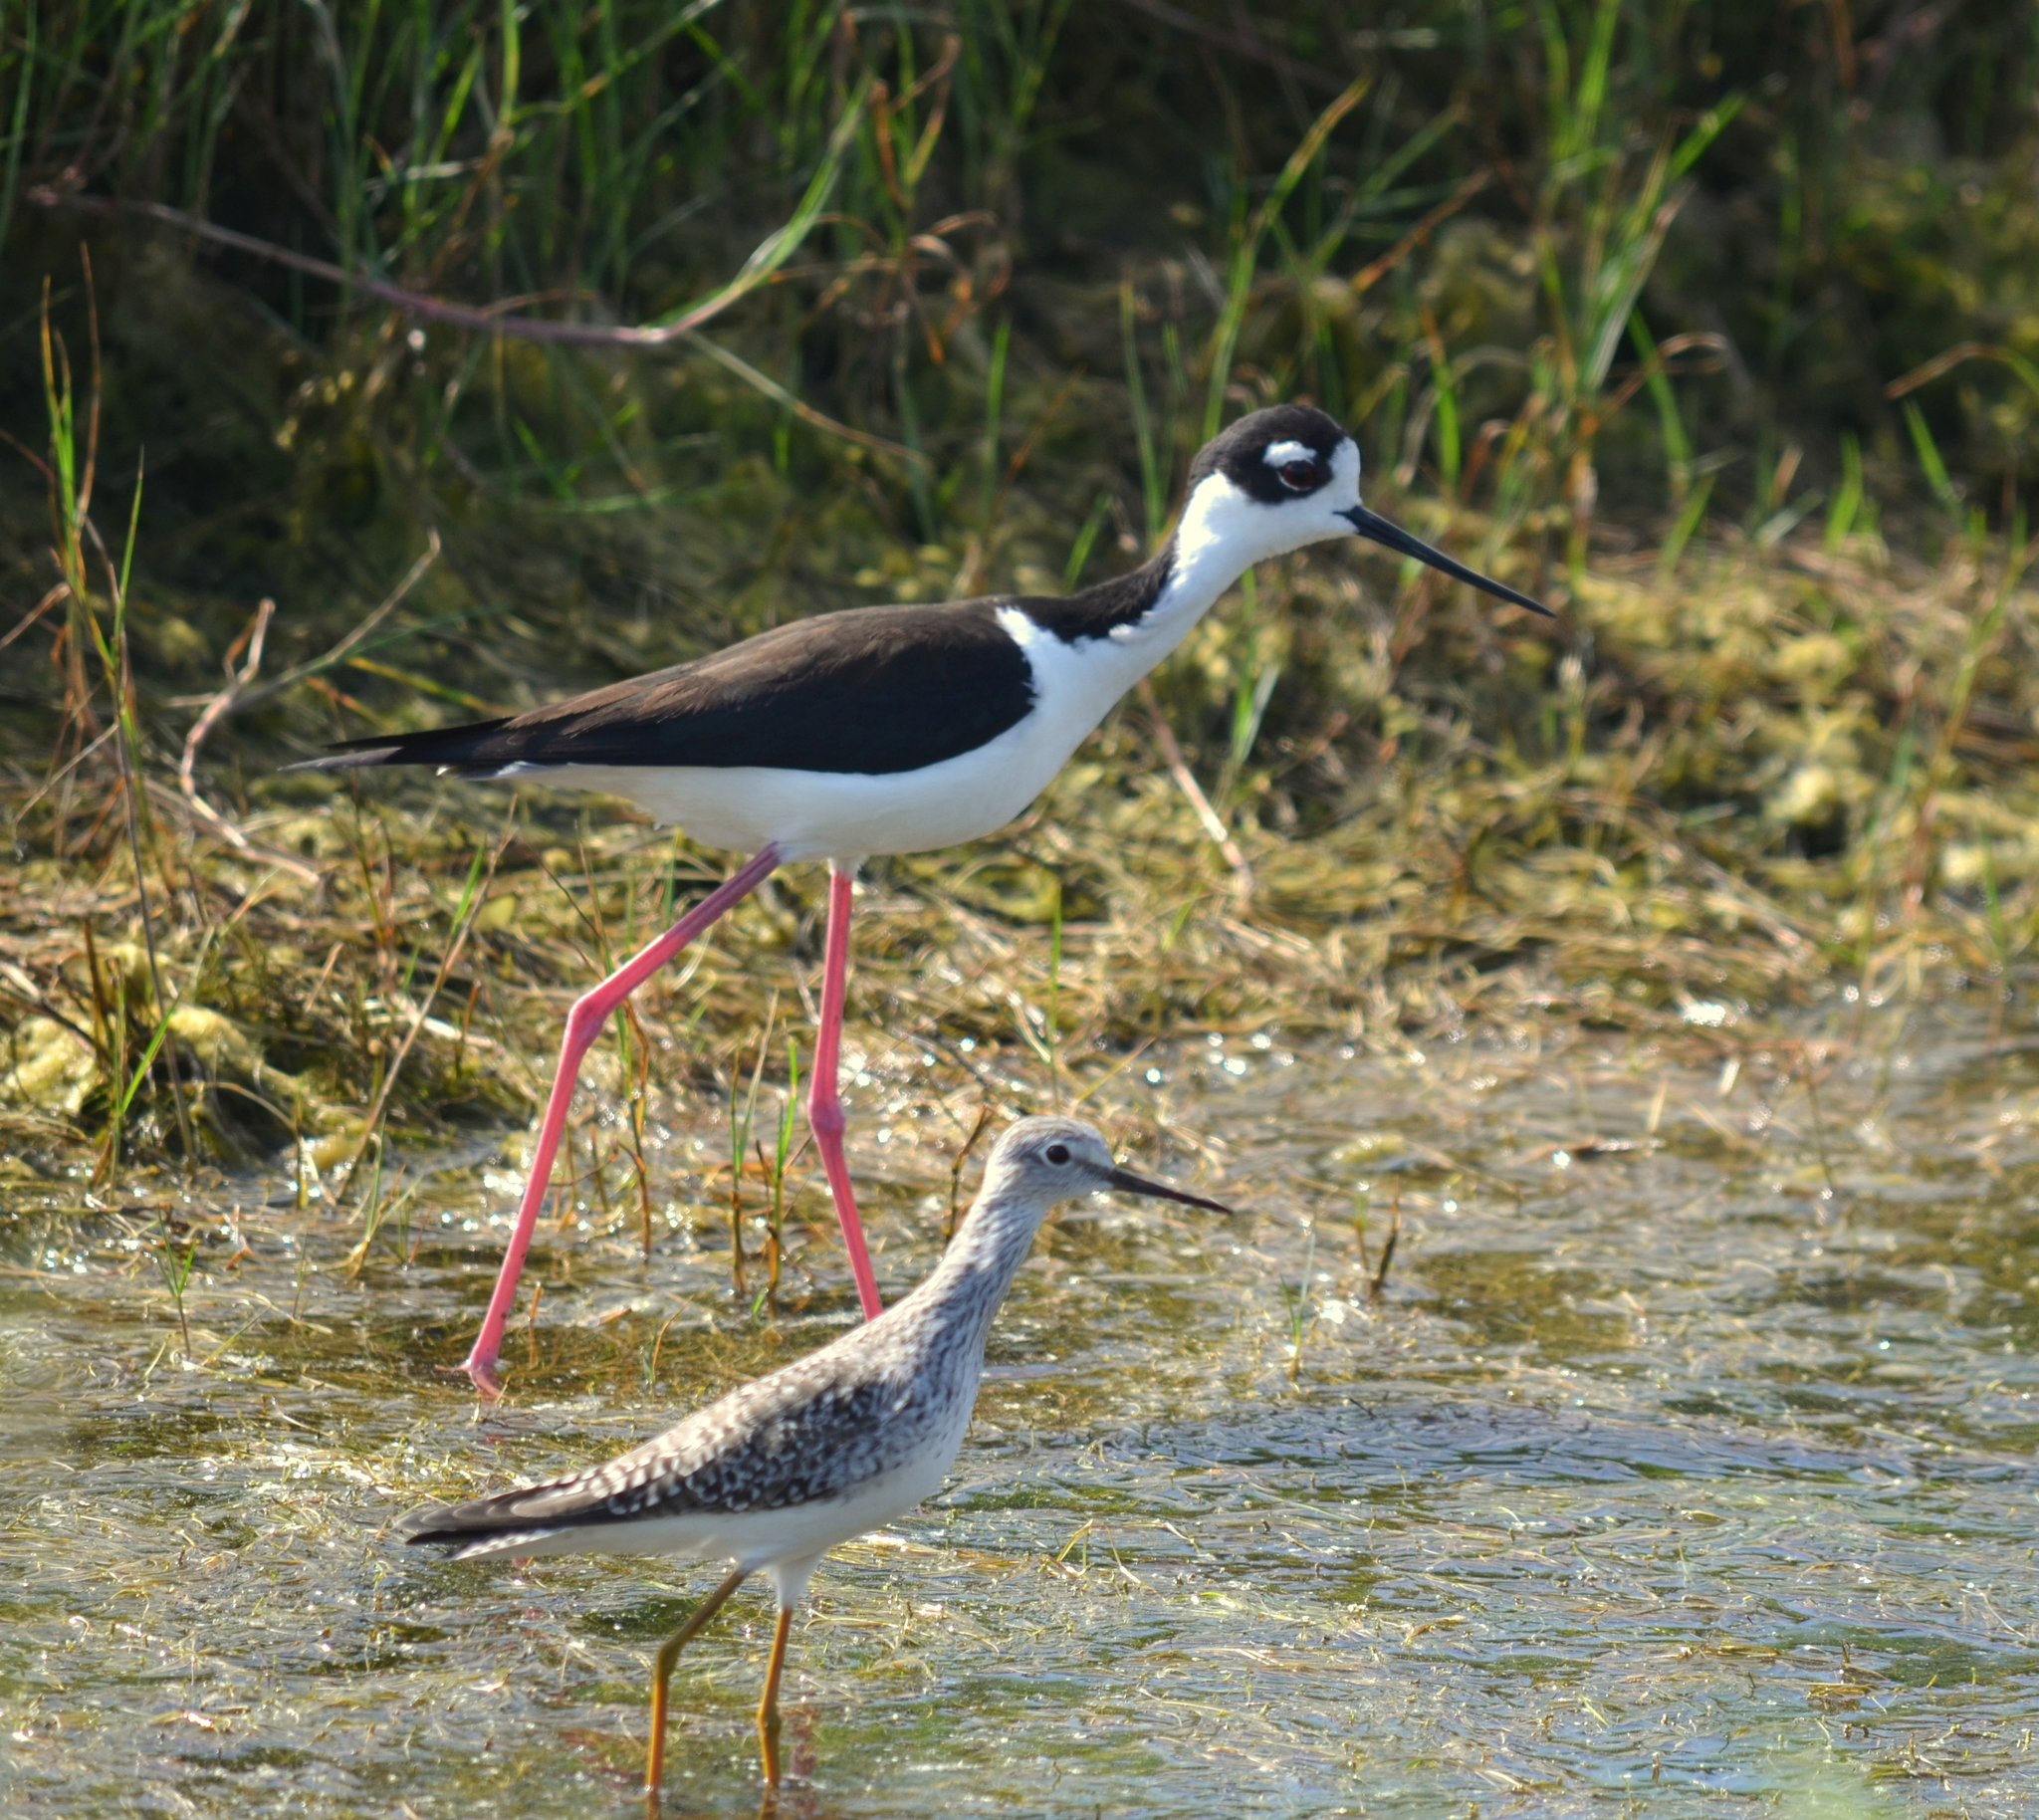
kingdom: Animalia
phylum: Chordata
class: Aves
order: Charadriiformes
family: Scolopacidae
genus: Tringa
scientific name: Tringa flavipes
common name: Lesser yellowlegs
